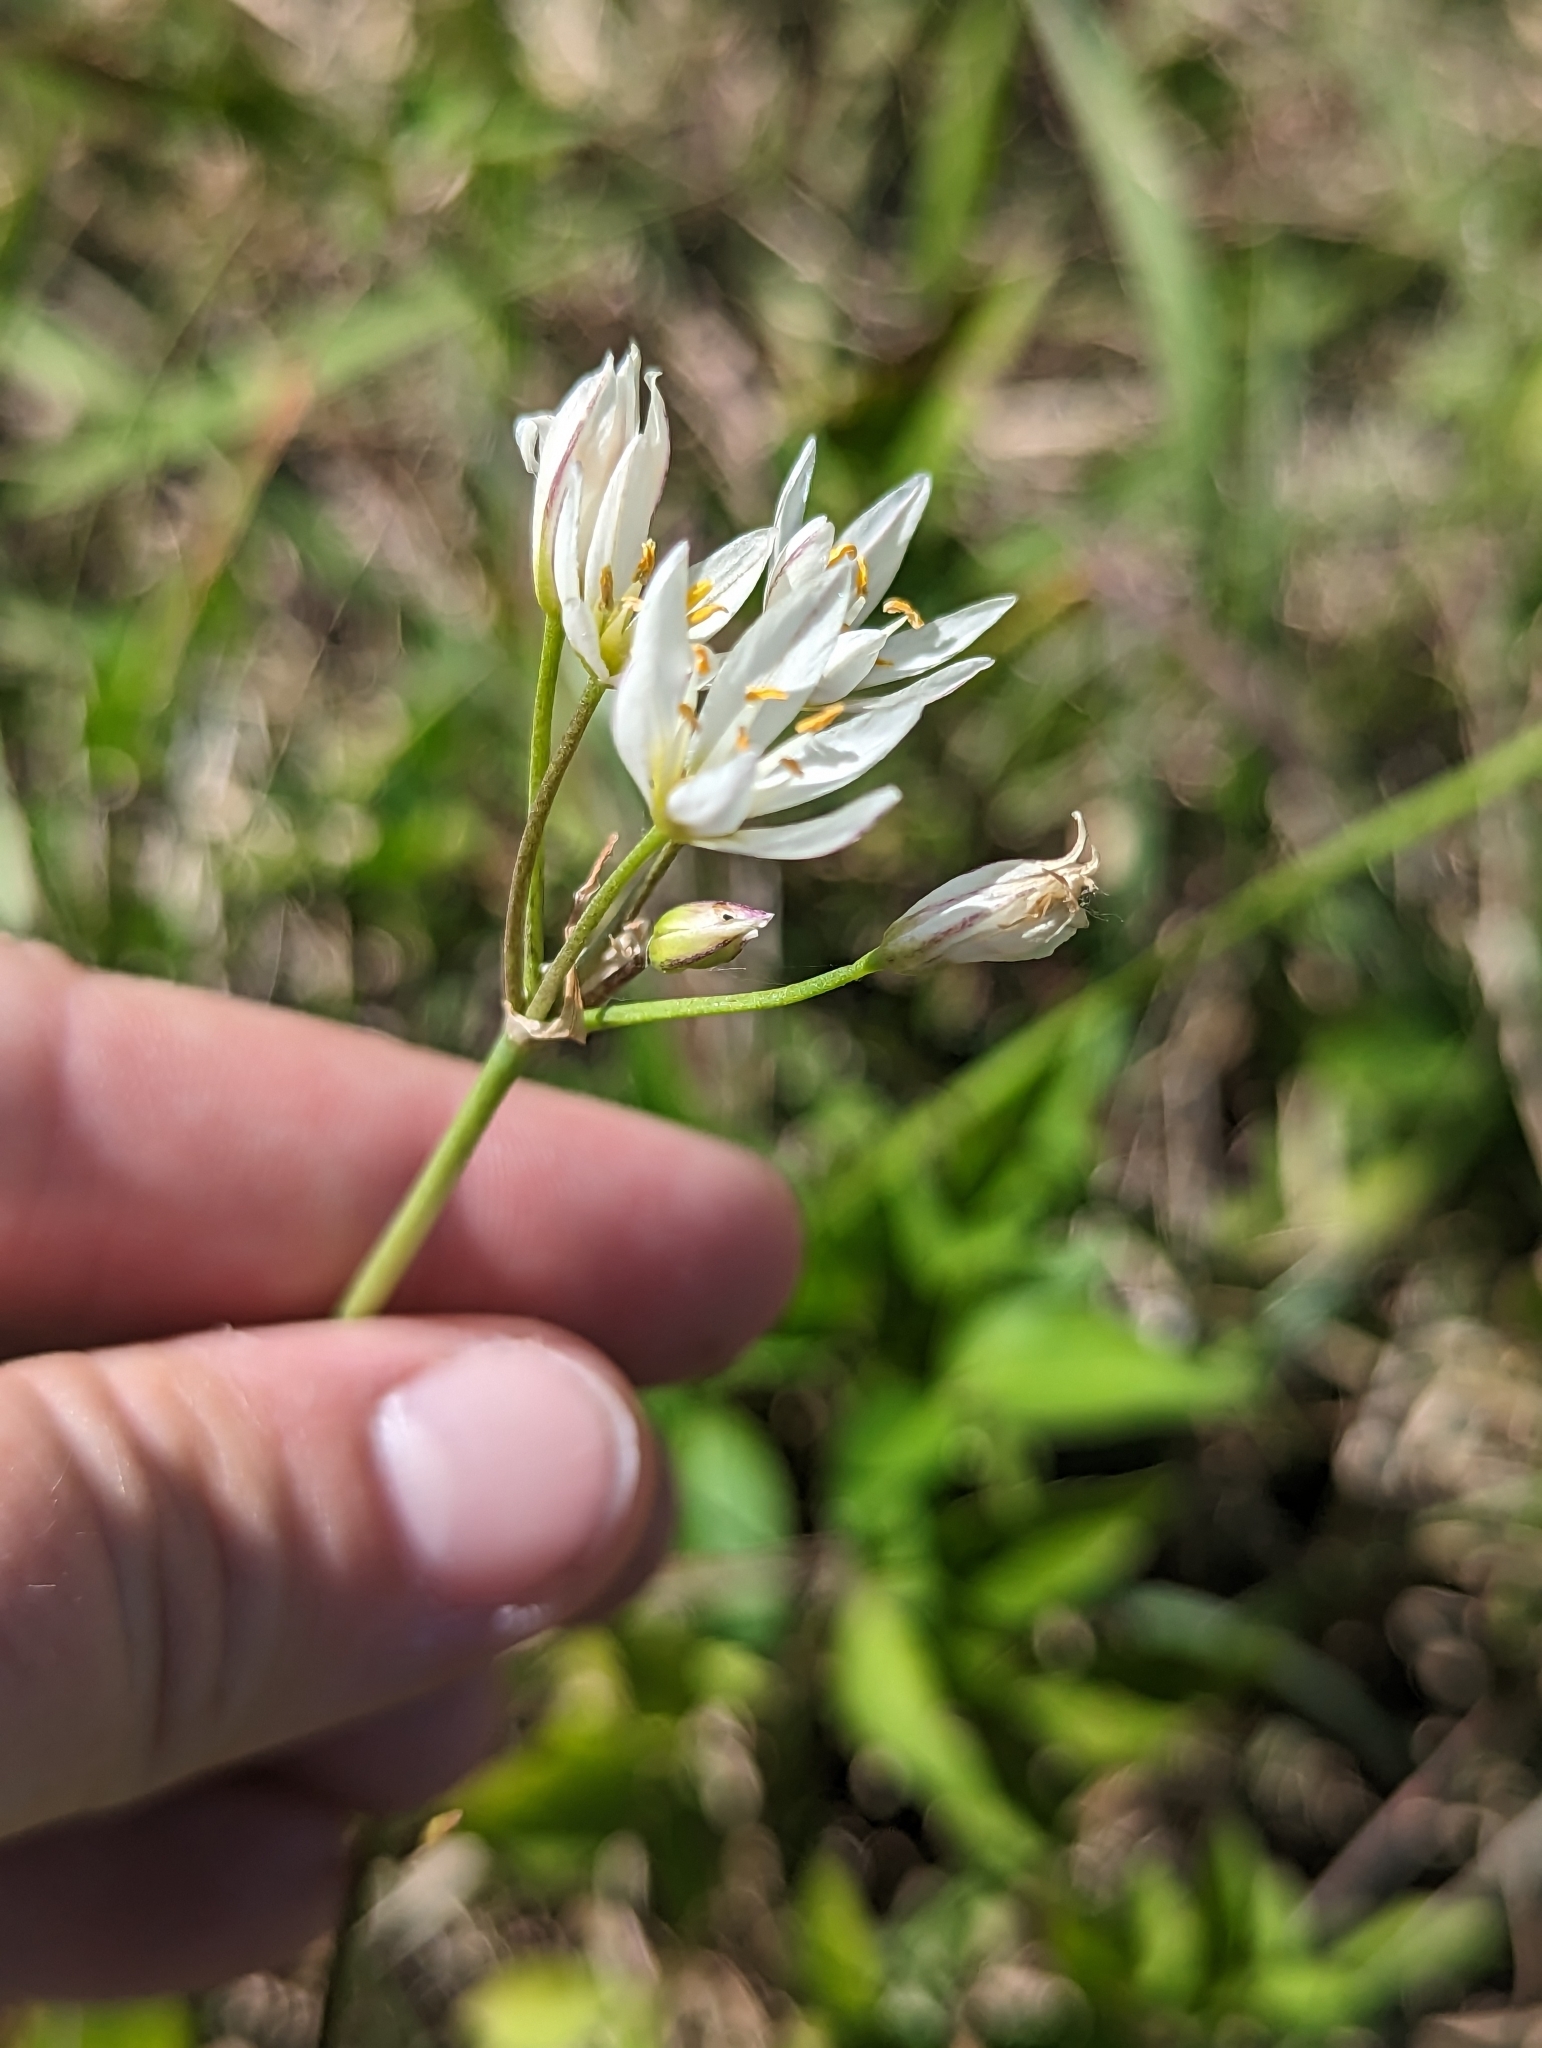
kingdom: Plantae
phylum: Tracheophyta
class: Liliopsida
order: Asparagales
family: Amaryllidaceae
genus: Nothoscordum
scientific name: Nothoscordum bivalve
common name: Crow-poison
